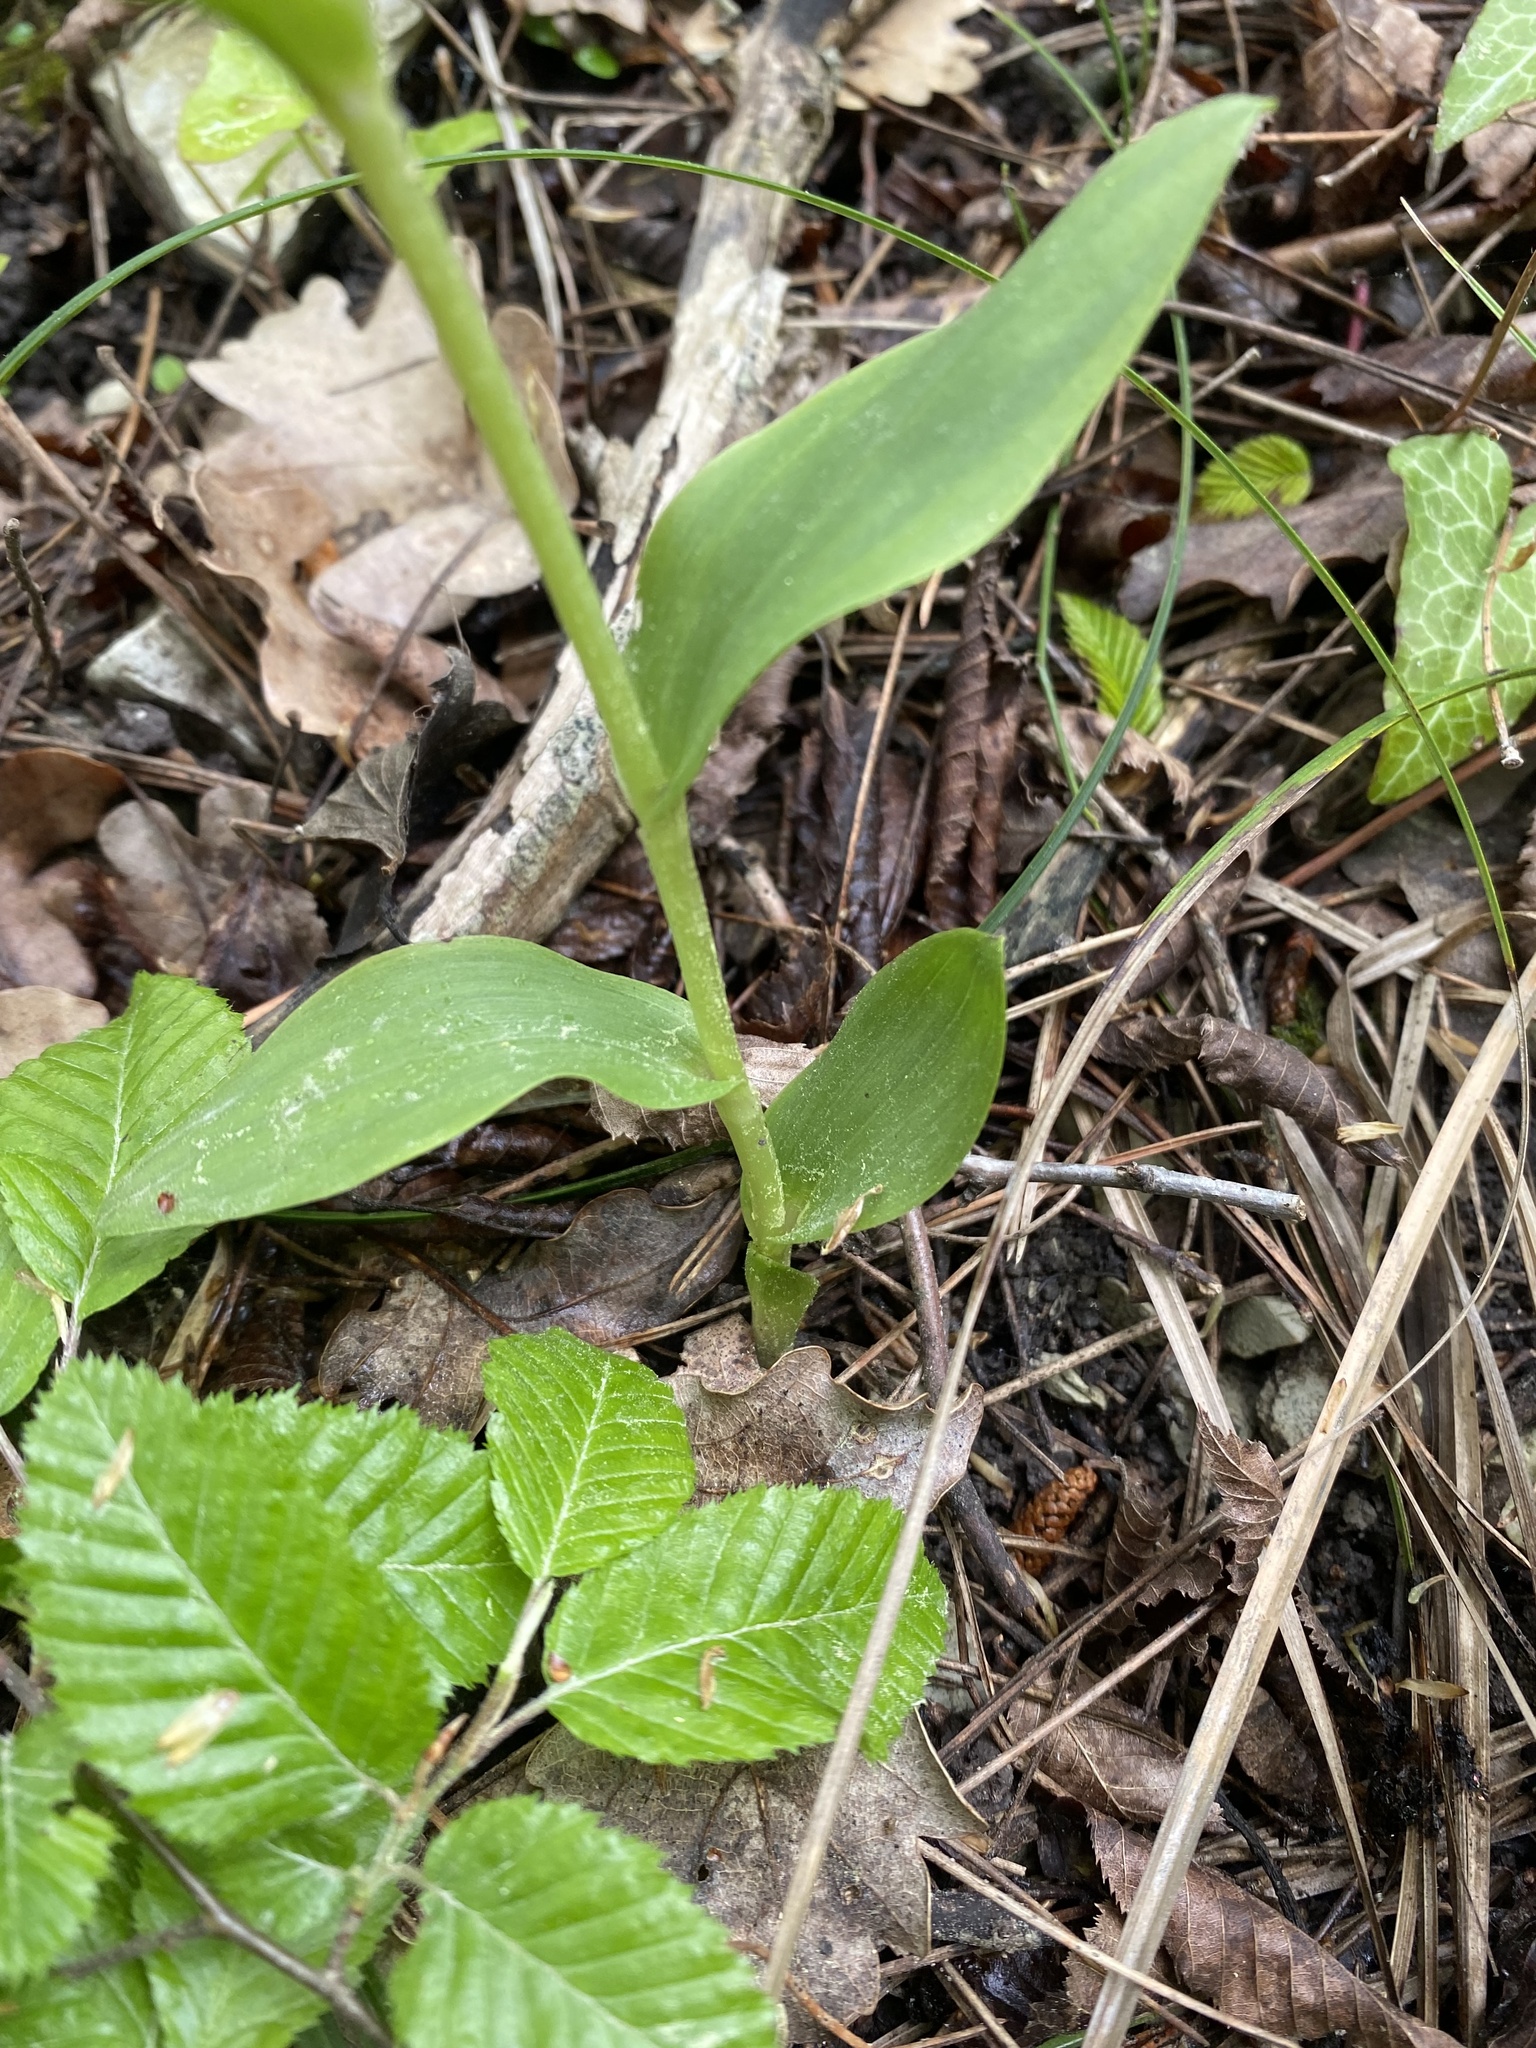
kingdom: Plantae
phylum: Tracheophyta
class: Liliopsida
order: Asparagales
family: Orchidaceae
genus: Cephalanthera
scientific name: Cephalanthera damasonium
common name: White helleborine
